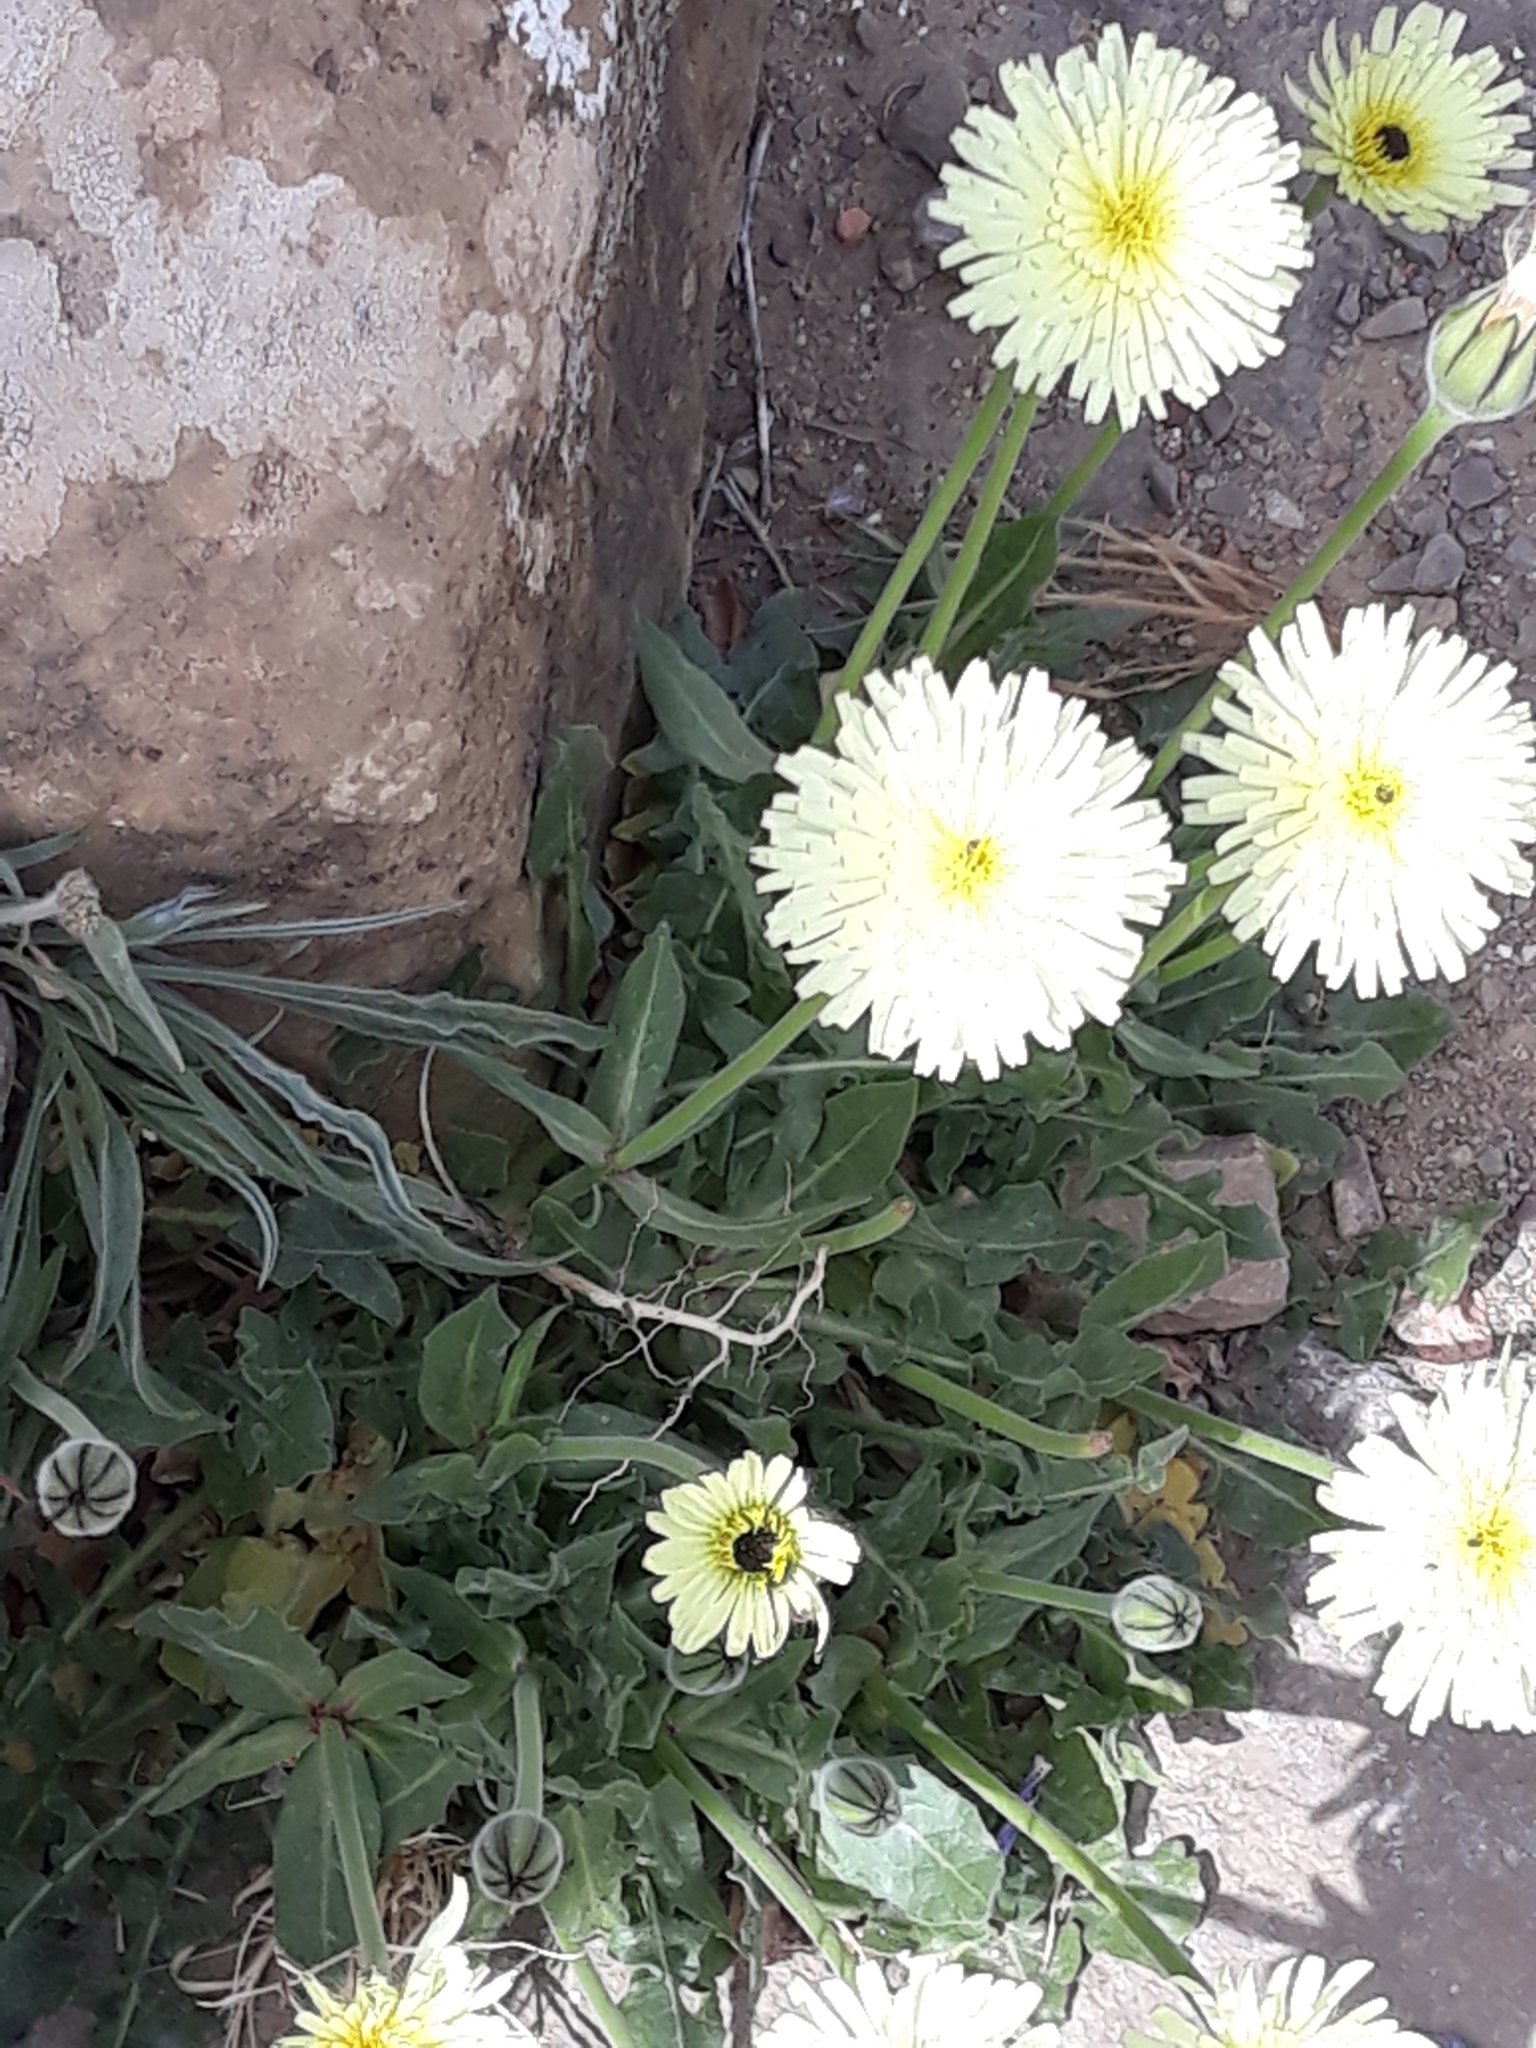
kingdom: Plantae
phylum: Tracheophyta
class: Magnoliopsida
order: Asterales
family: Asteraceae
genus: Urospermum
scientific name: Urospermum dalechampii
